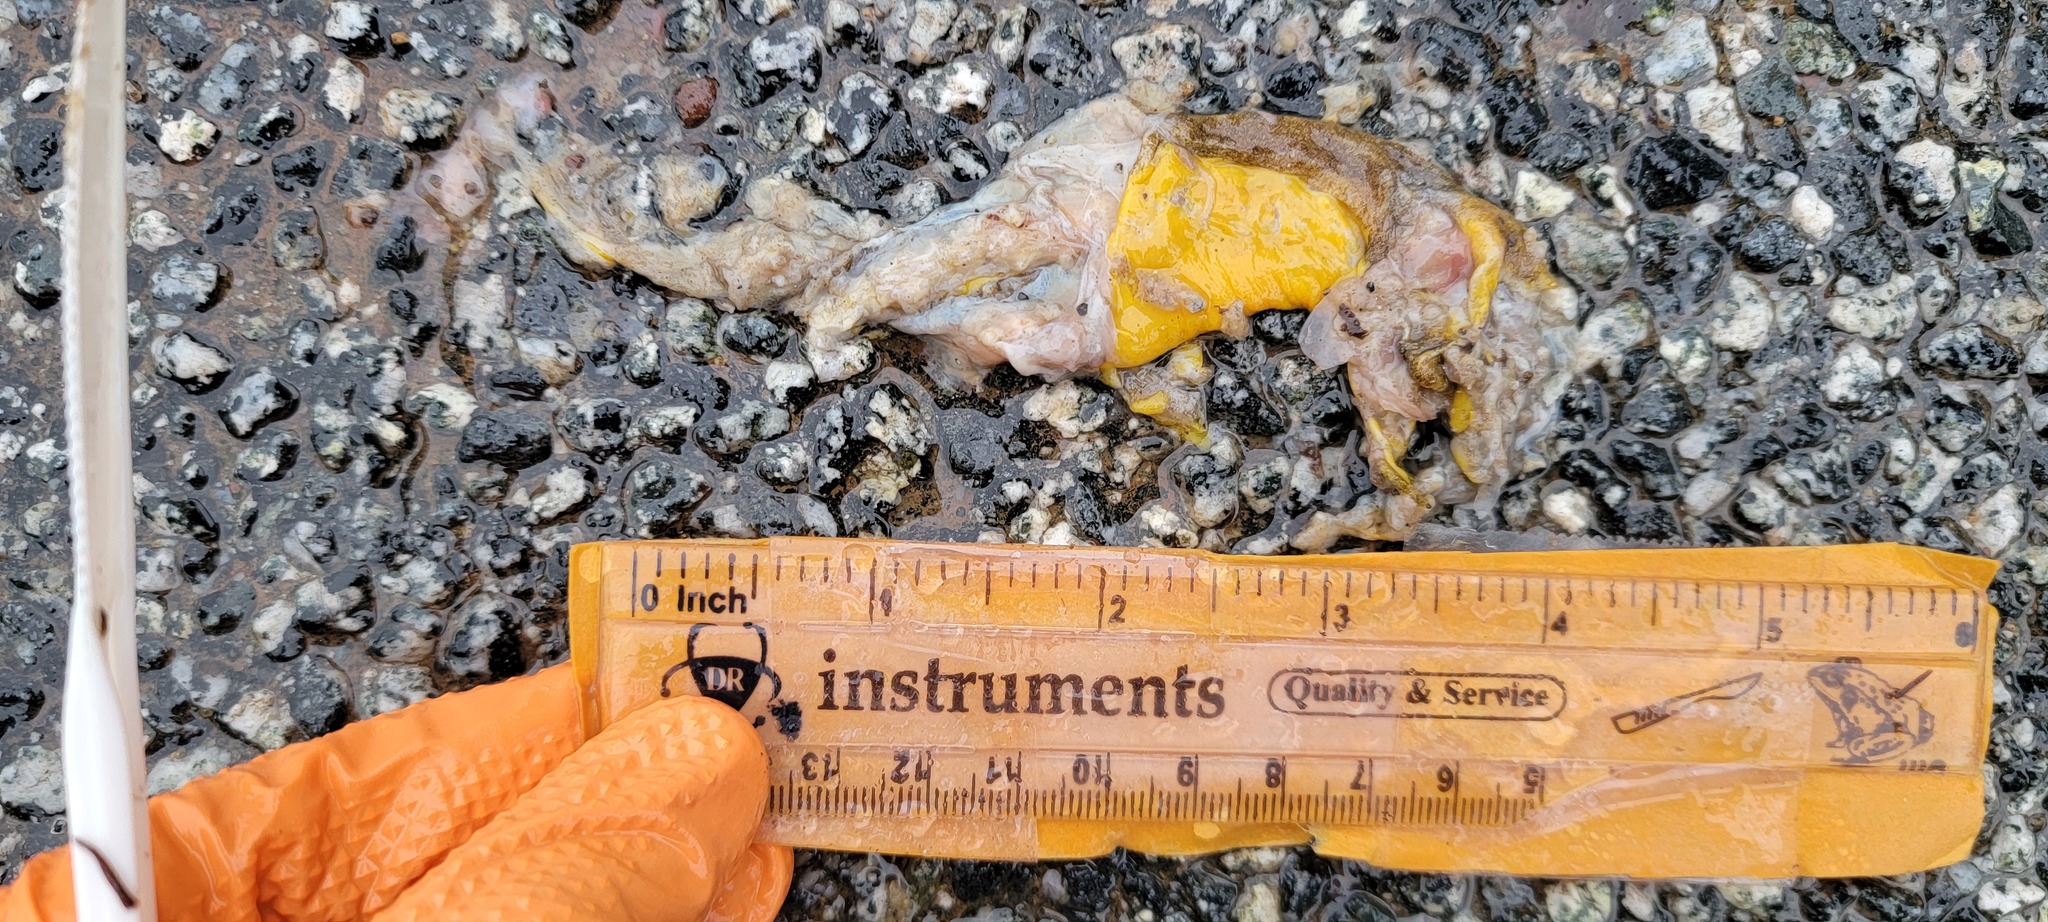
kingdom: Animalia
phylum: Chordata
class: Amphibia
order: Caudata
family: Salamandridae
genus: Taricha
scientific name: Taricha
